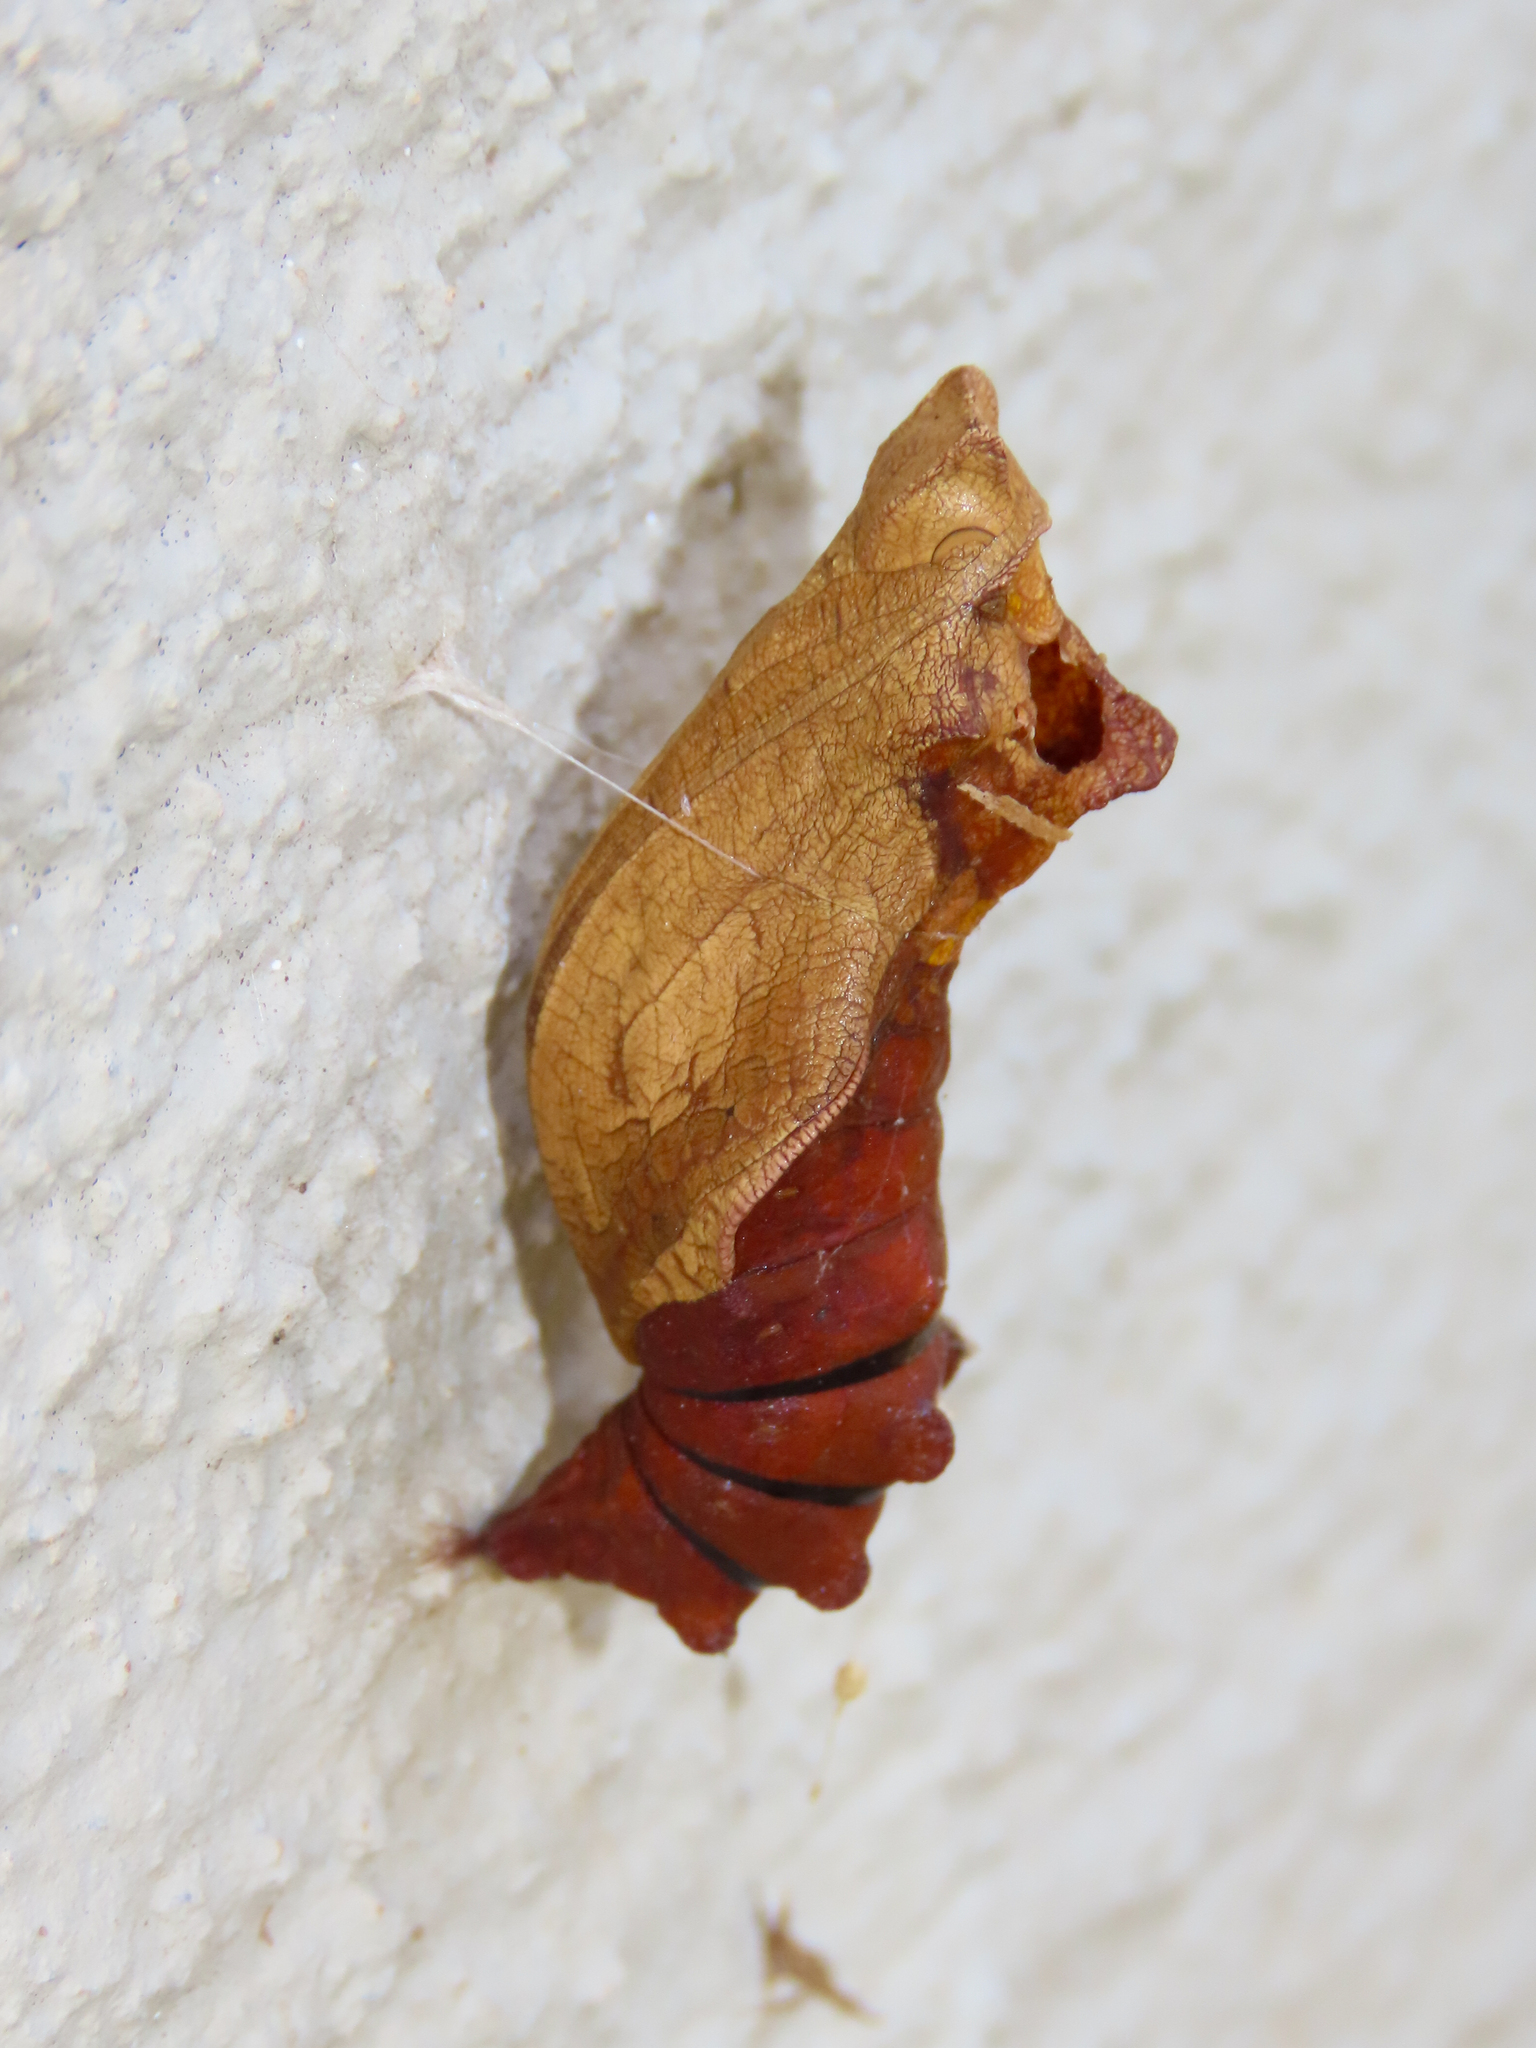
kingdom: Animalia
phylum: Arthropoda
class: Insecta
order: Lepidoptera
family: Papilionidae
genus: Battus
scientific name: Battus philenor
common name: Pipevine swallowtail
